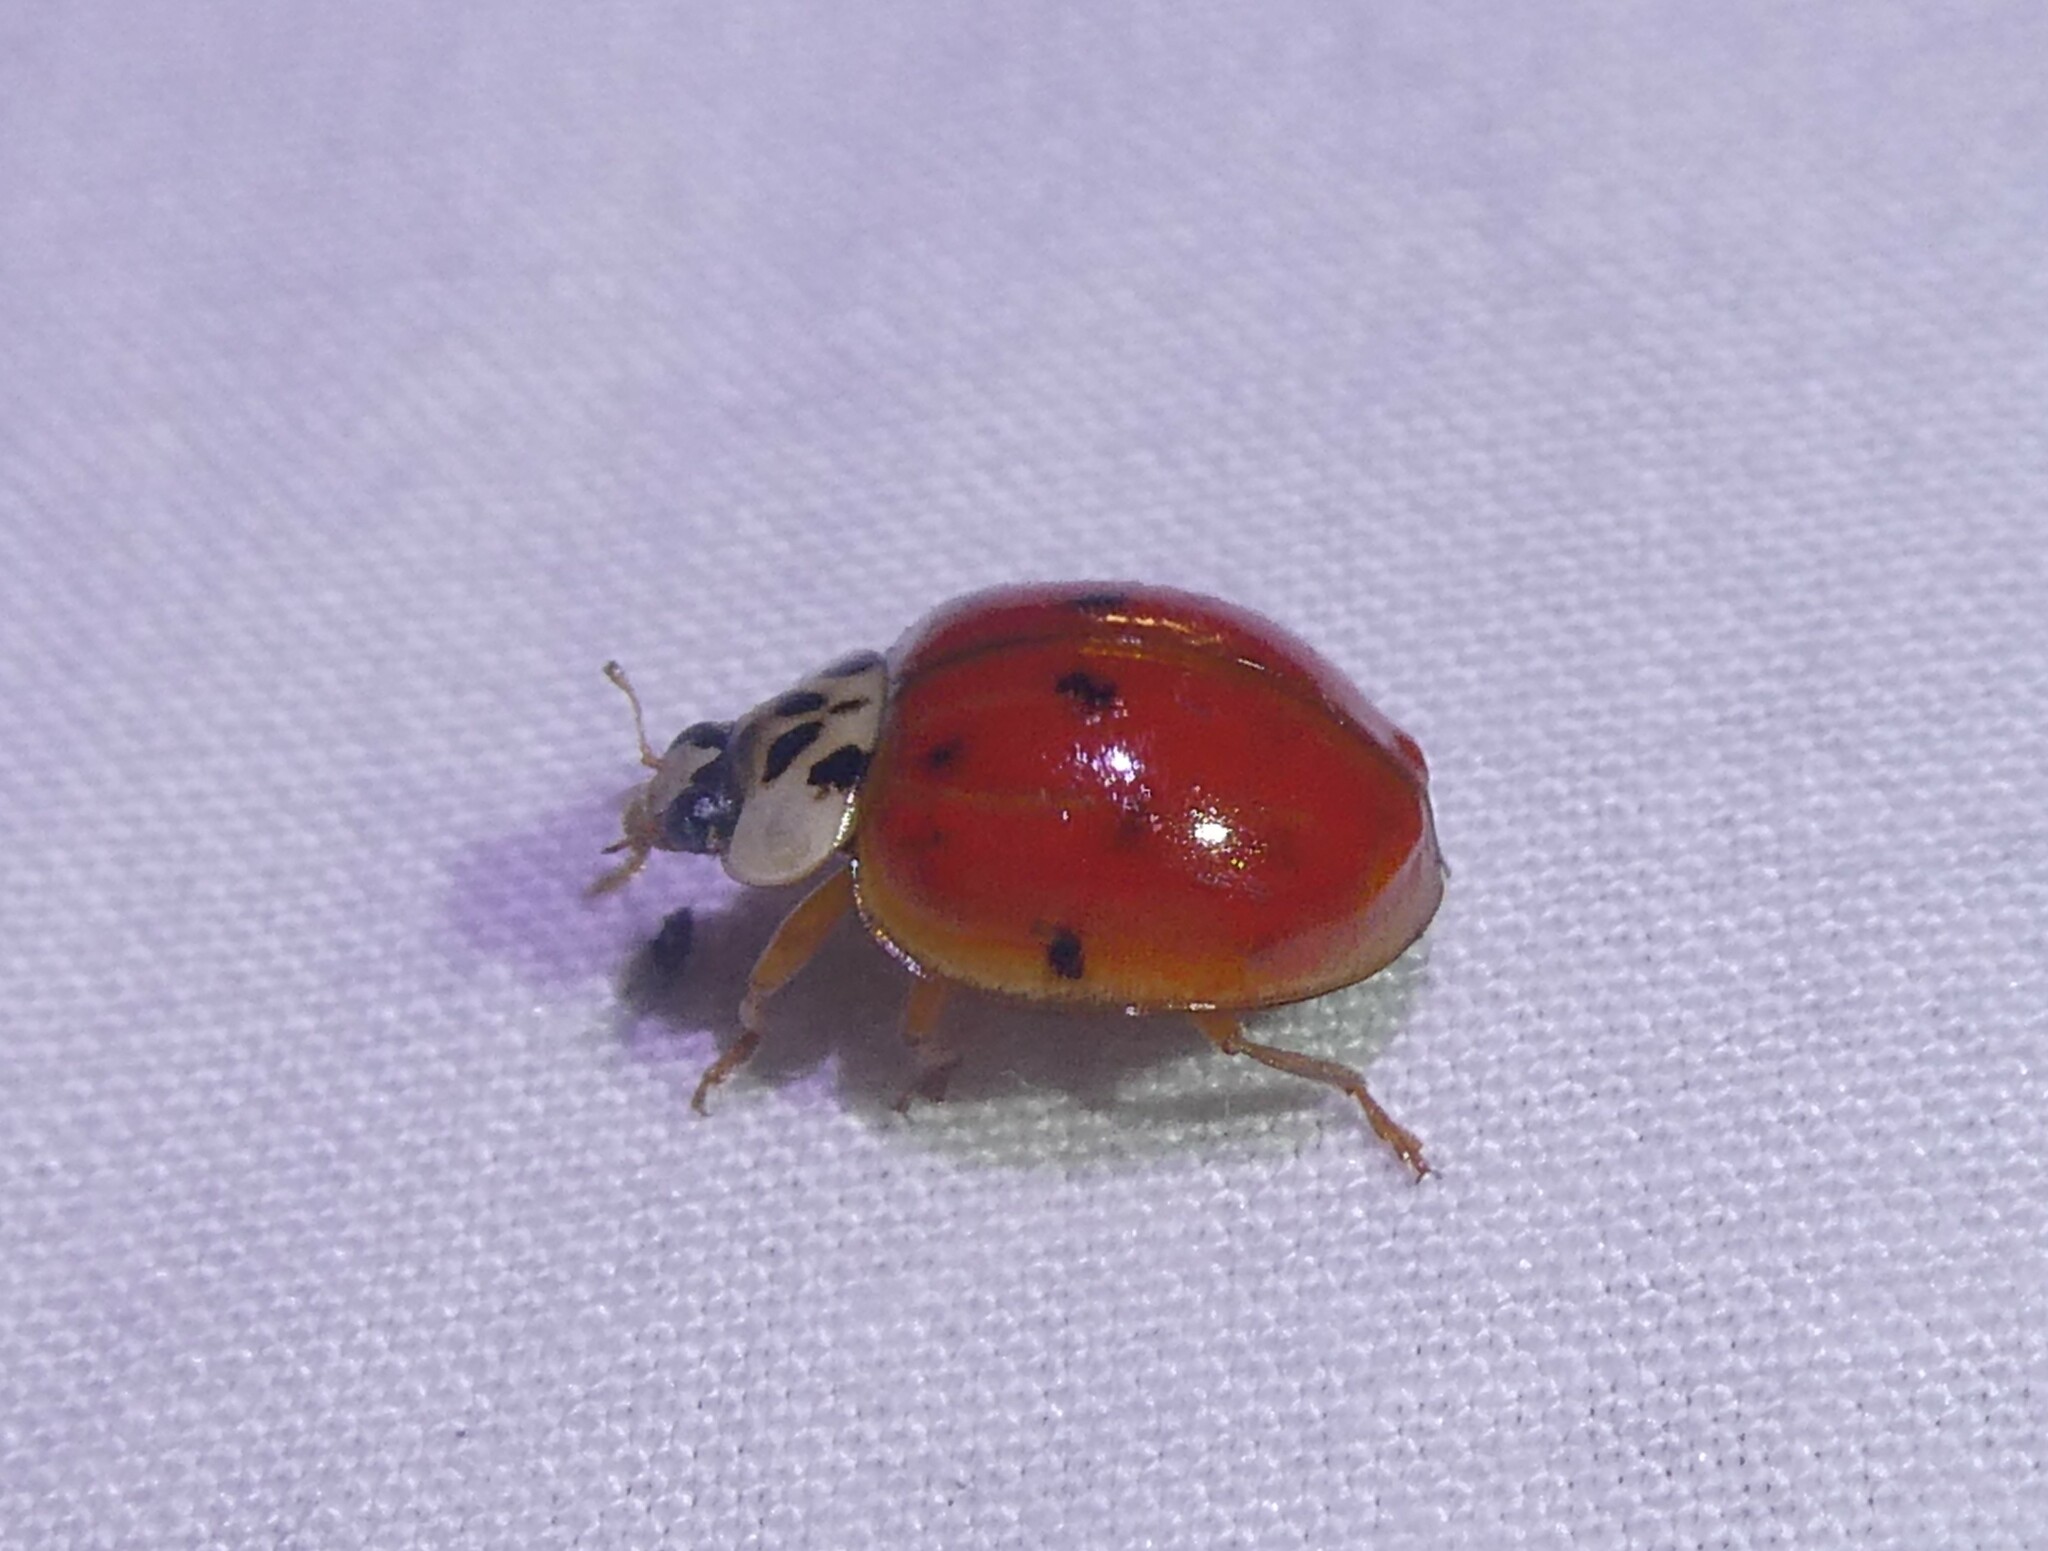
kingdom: Animalia
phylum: Arthropoda
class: Insecta
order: Coleoptera
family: Coccinellidae
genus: Harmonia
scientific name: Harmonia axyridis
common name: Harlequin ladybird
